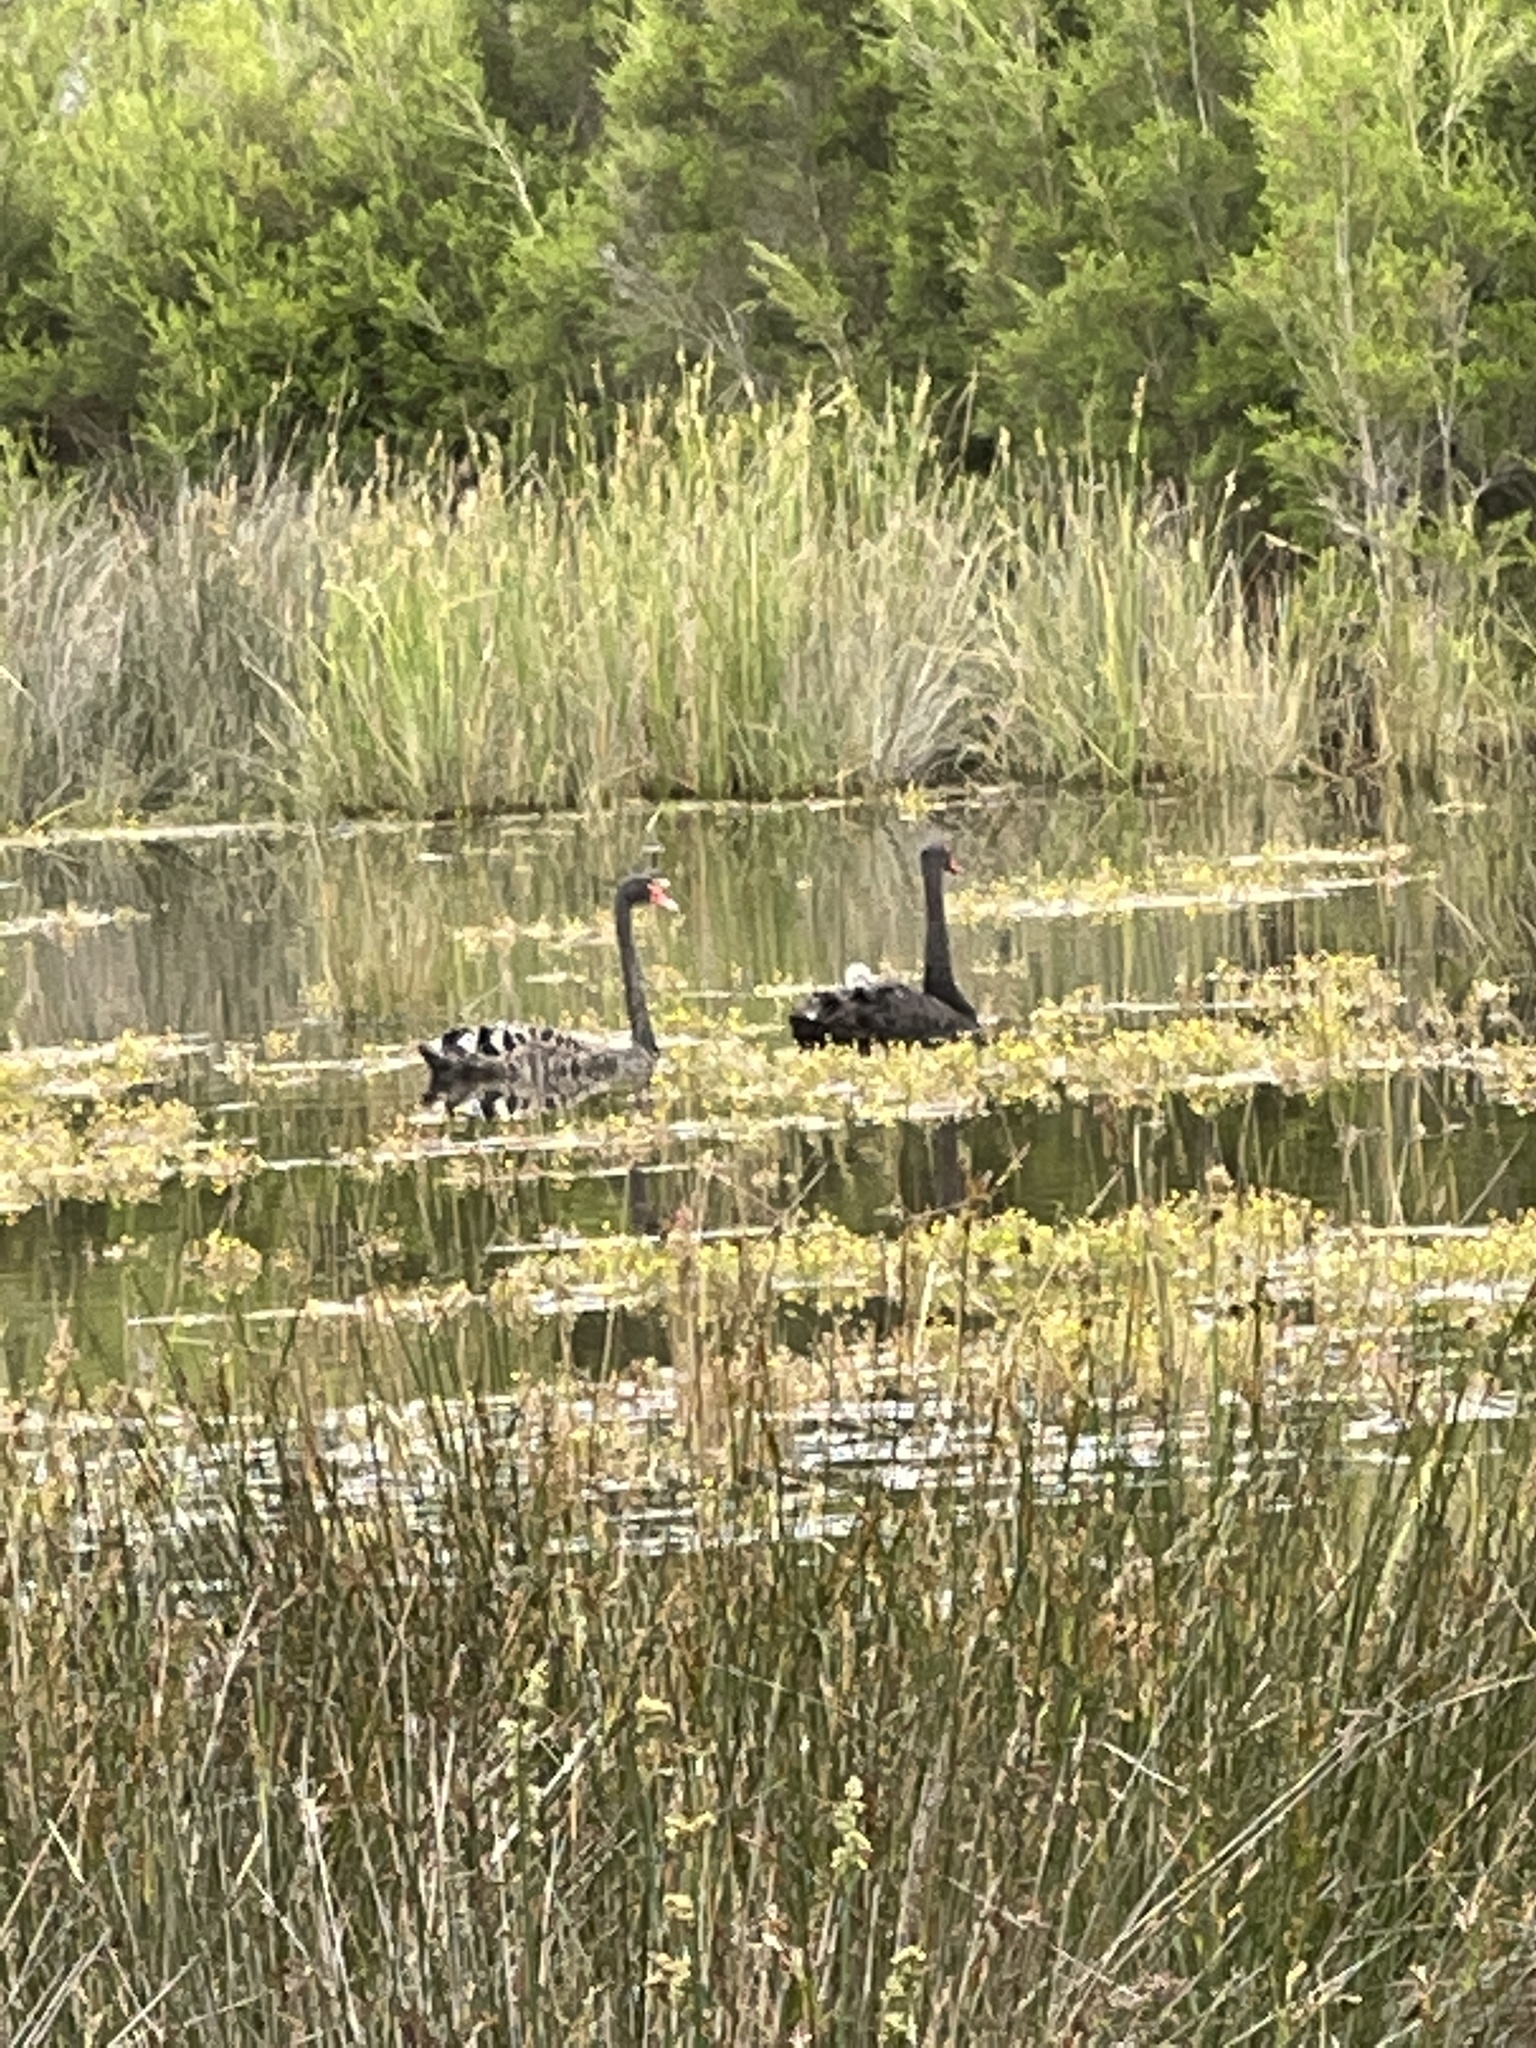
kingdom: Animalia
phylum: Chordata
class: Aves
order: Anseriformes
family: Anatidae
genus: Cygnus
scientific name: Cygnus atratus
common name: Black swan
